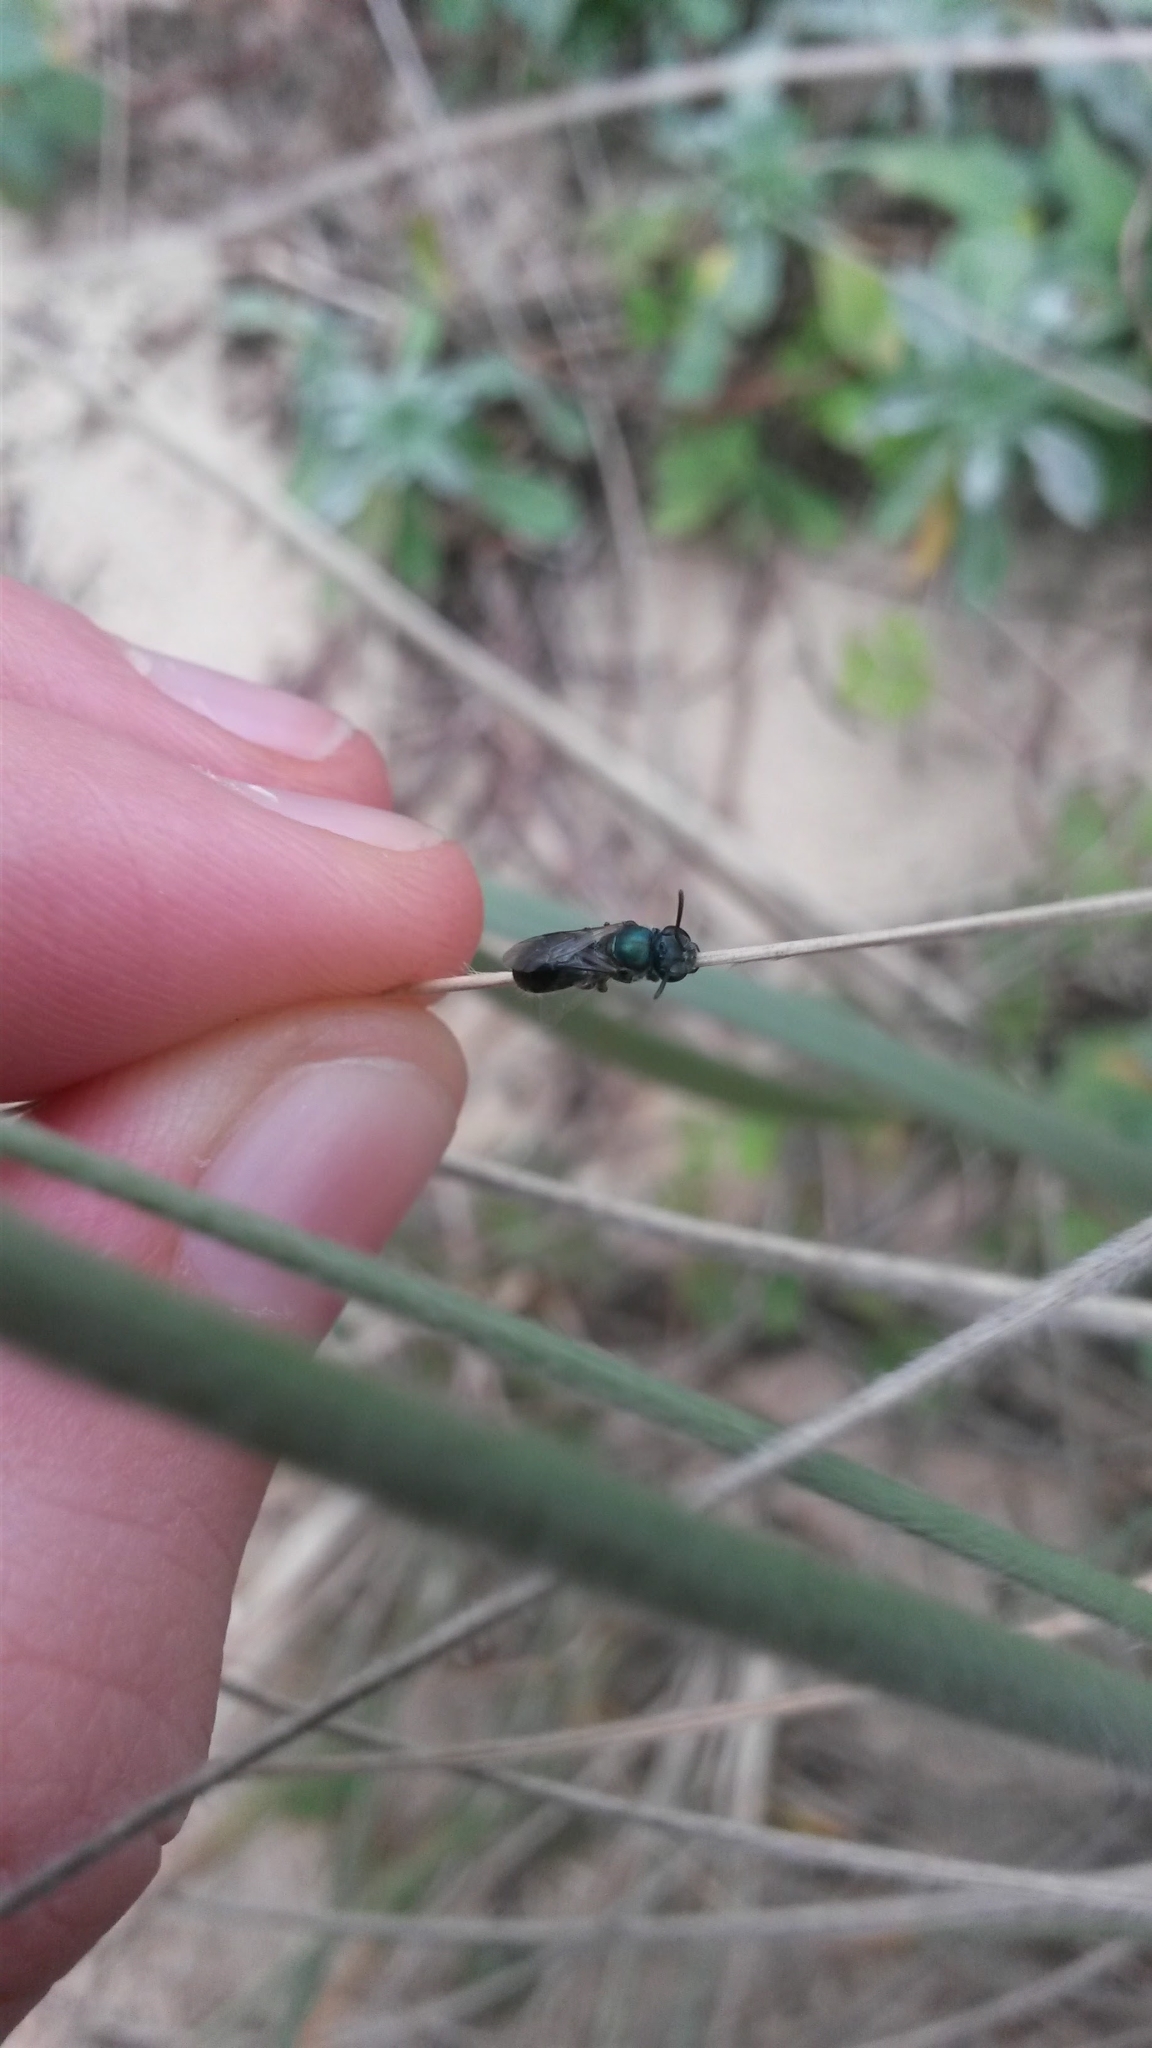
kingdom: Animalia
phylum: Arthropoda
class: Insecta
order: Hymenoptera
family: Halictidae
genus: Lasioglossum
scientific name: Lasioglossum urbanum
